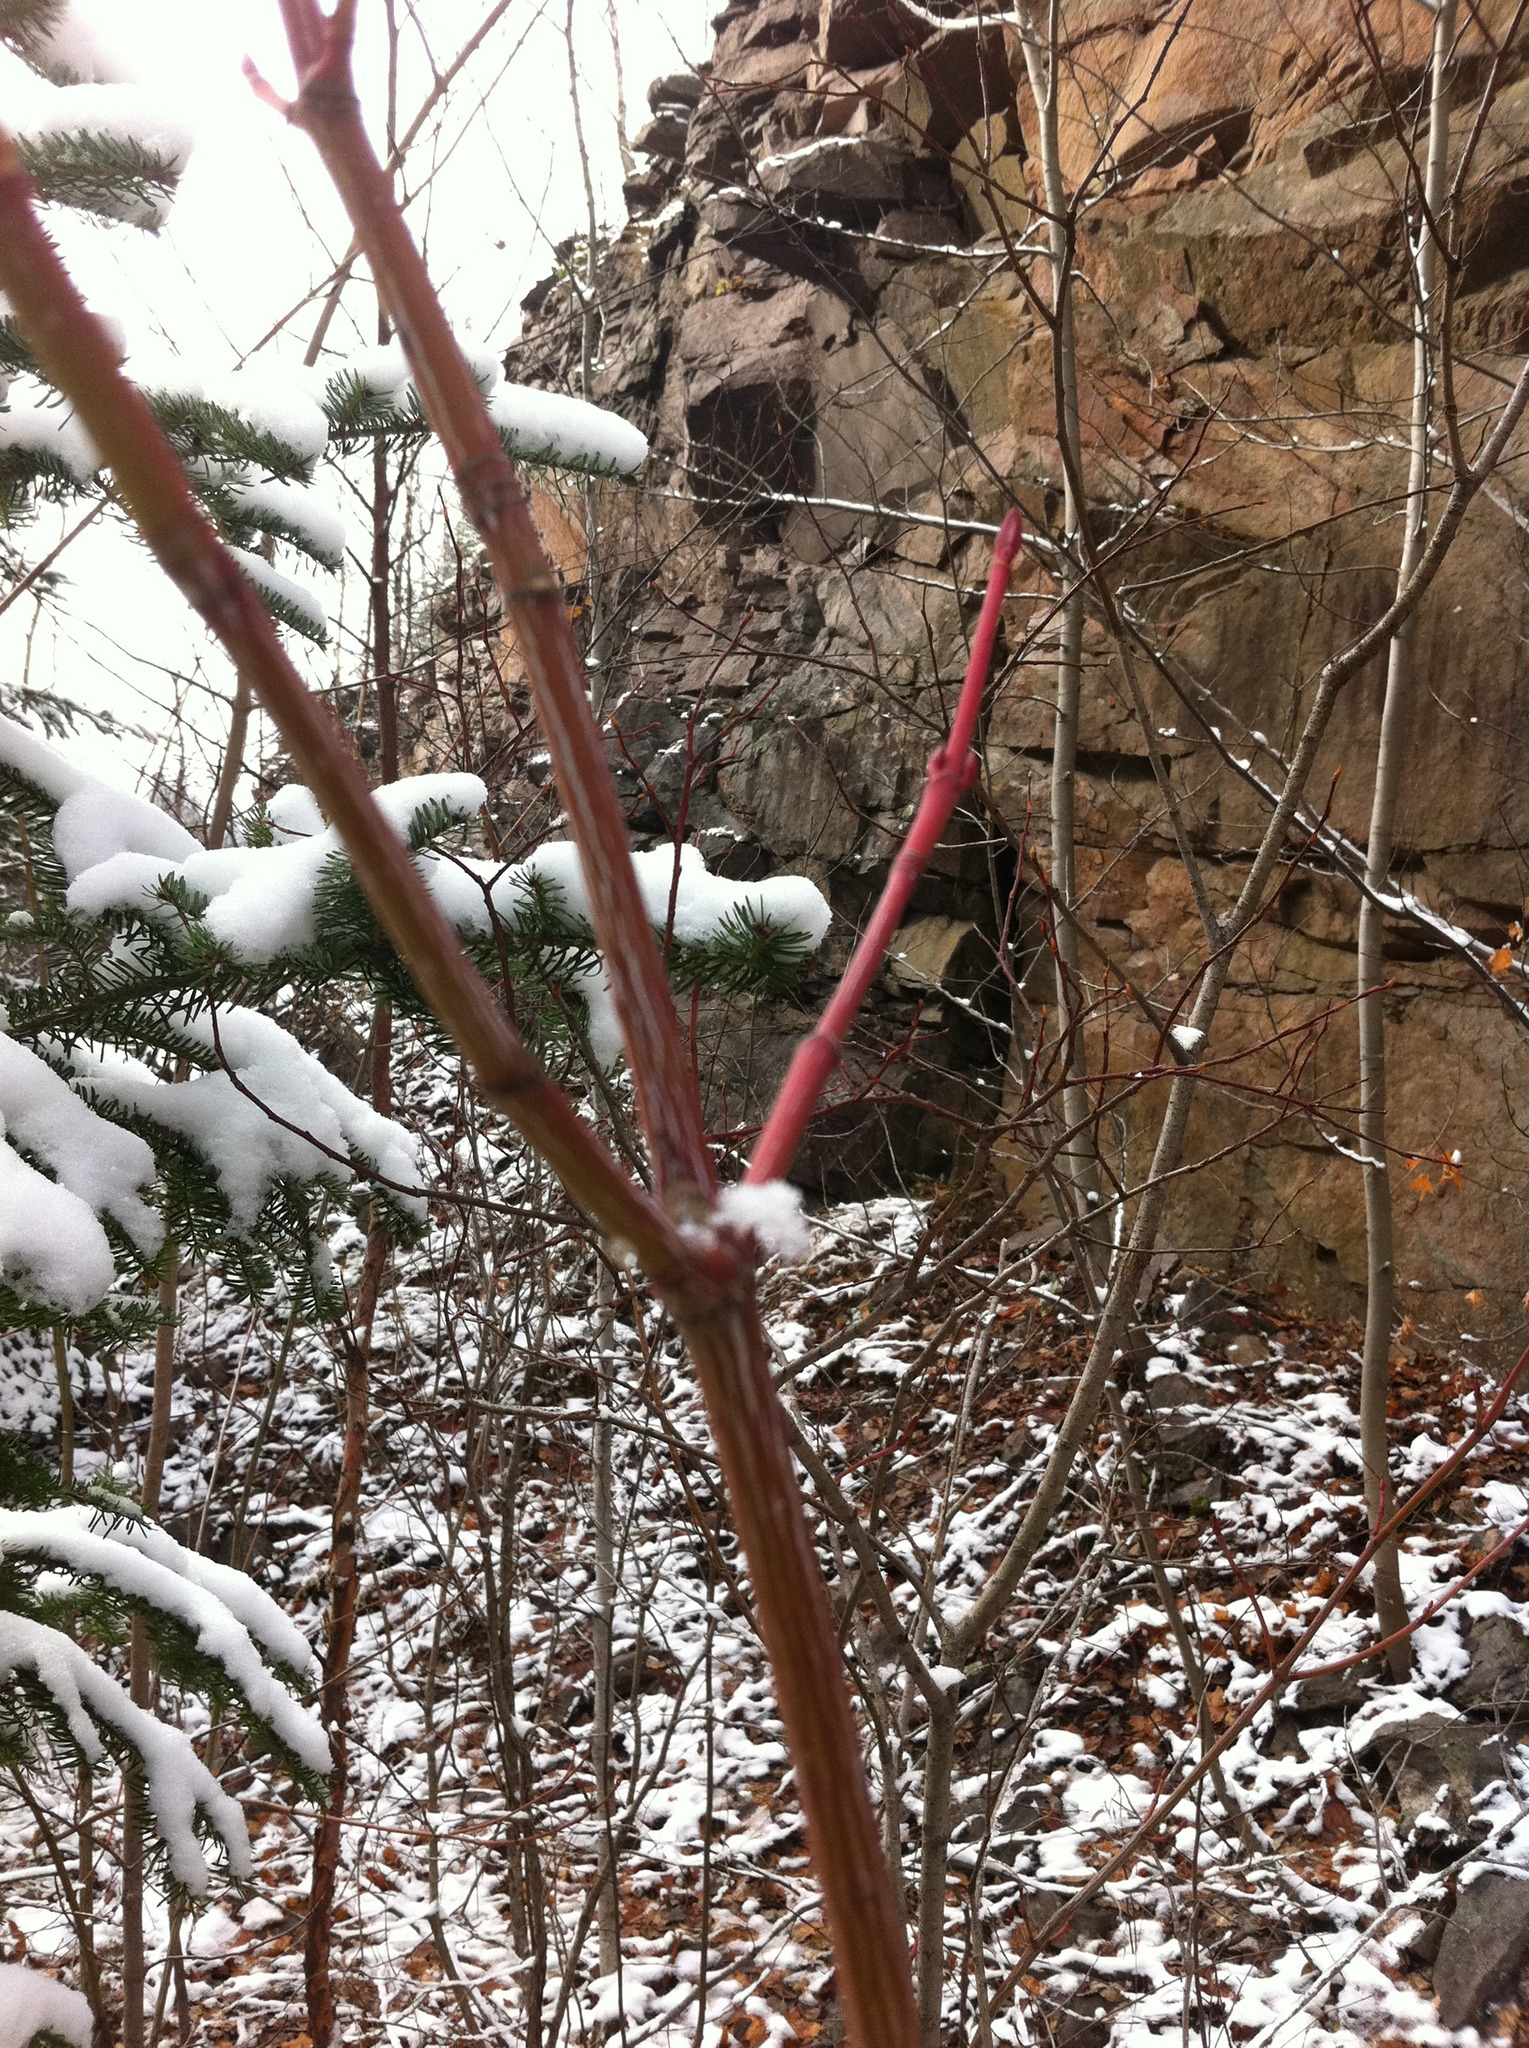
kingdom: Plantae
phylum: Tracheophyta
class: Magnoliopsida
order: Sapindales
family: Sapindaceae
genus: Acer
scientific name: Acer pensylvanicum
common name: Moosewood
